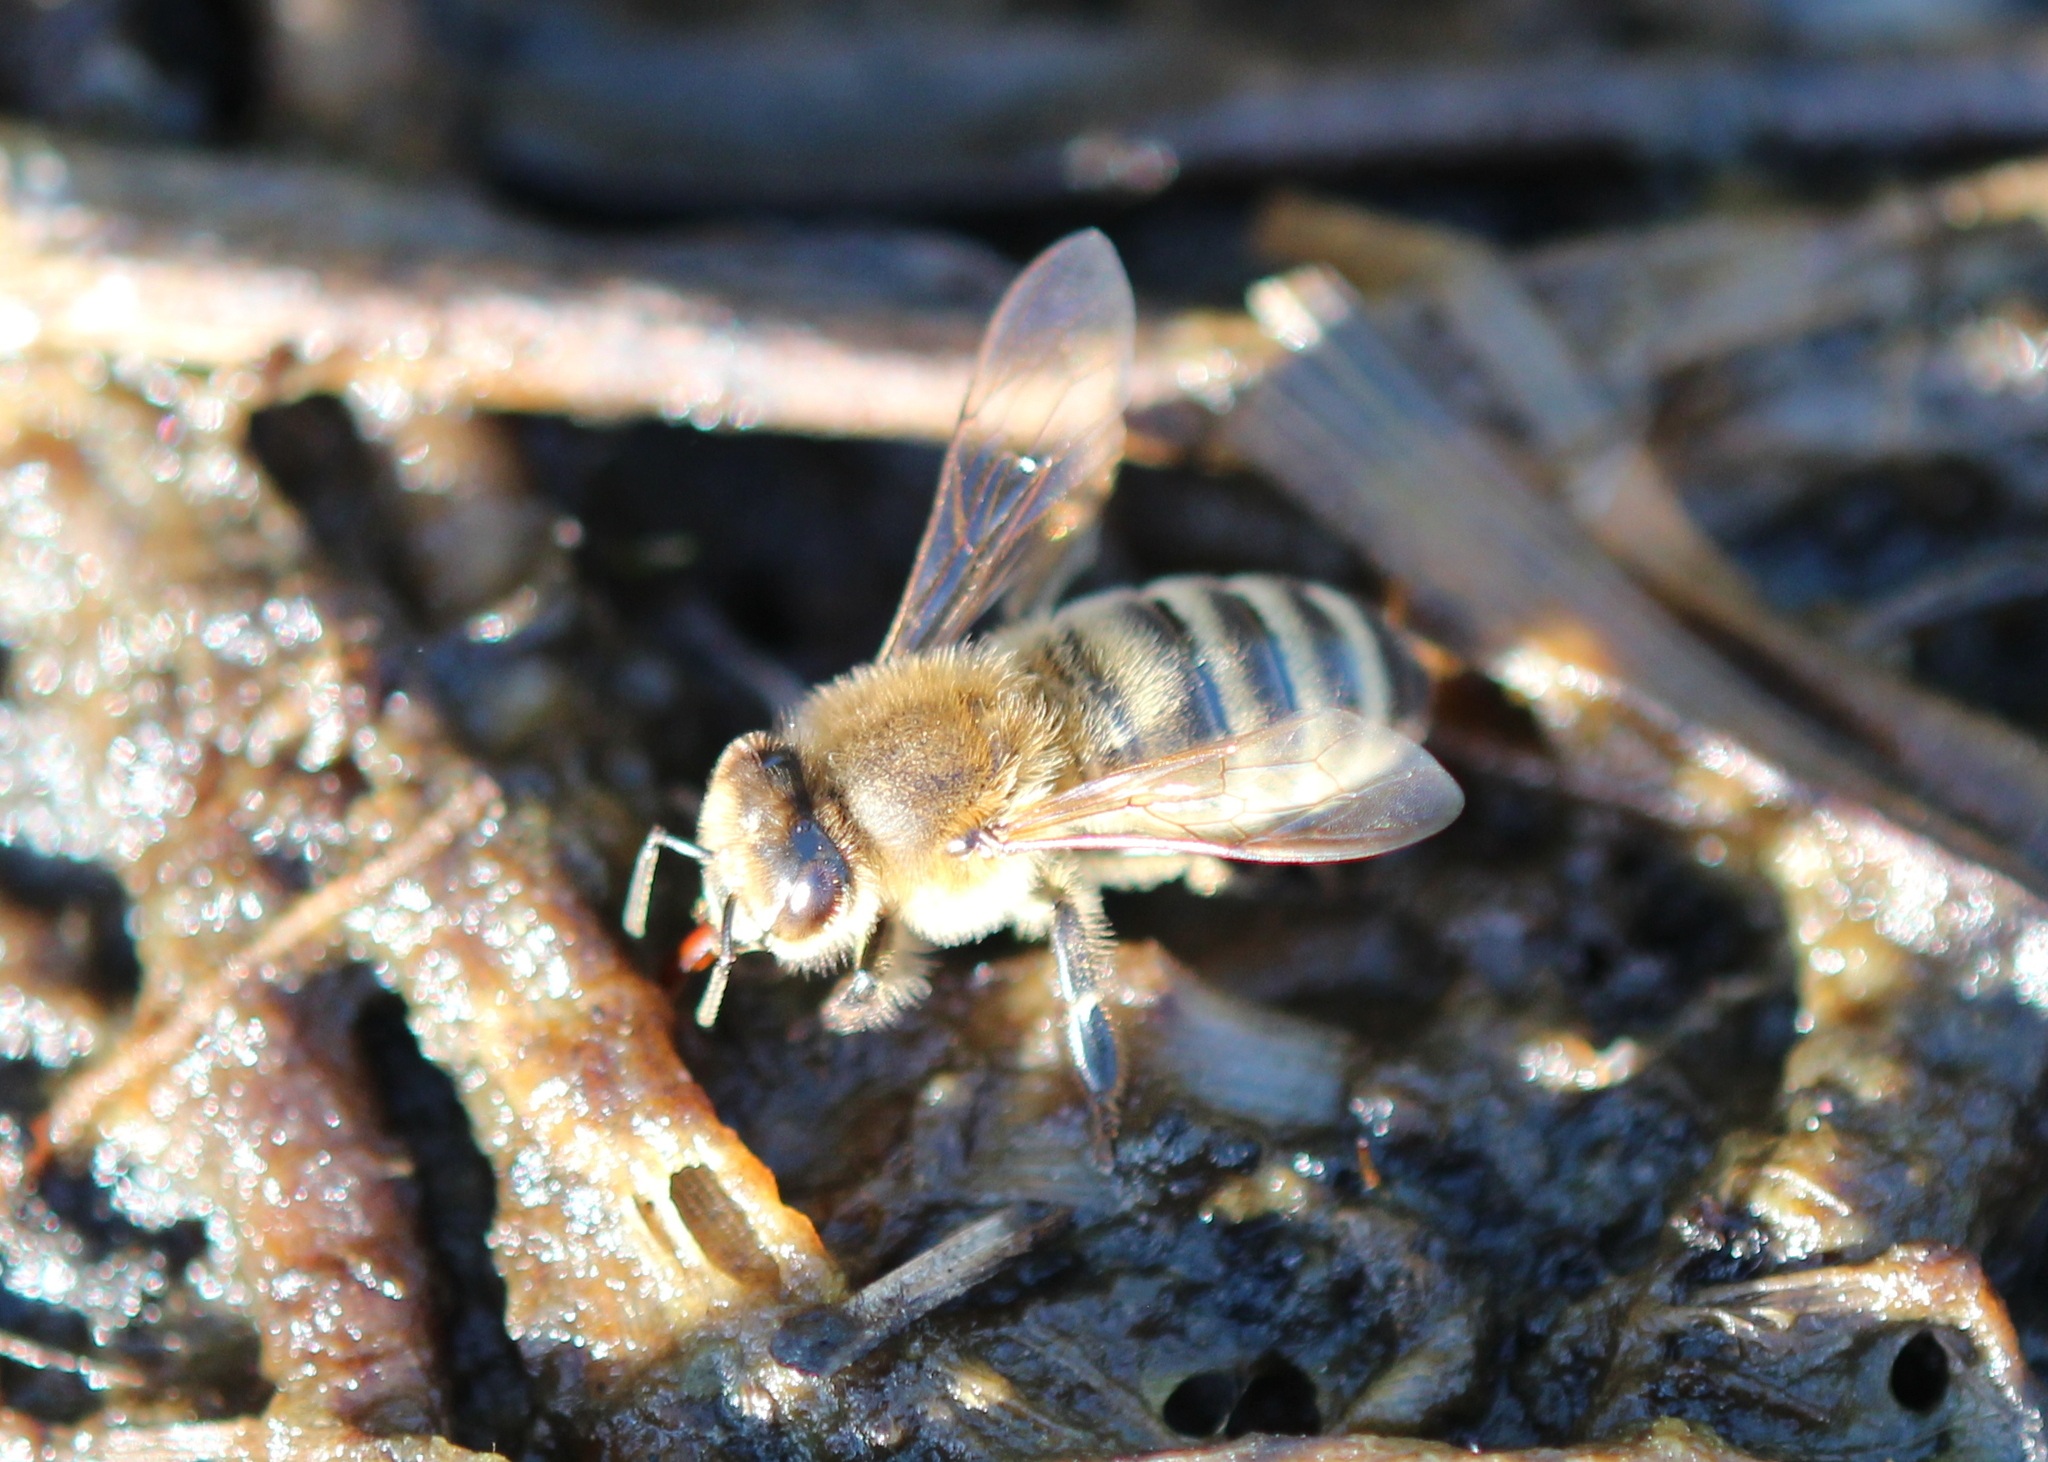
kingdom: Animalia
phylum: Arthropoda
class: Insecta
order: Hymenoptera
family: Apidae
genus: Apis
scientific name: Apis mellifera
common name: Honey bee
